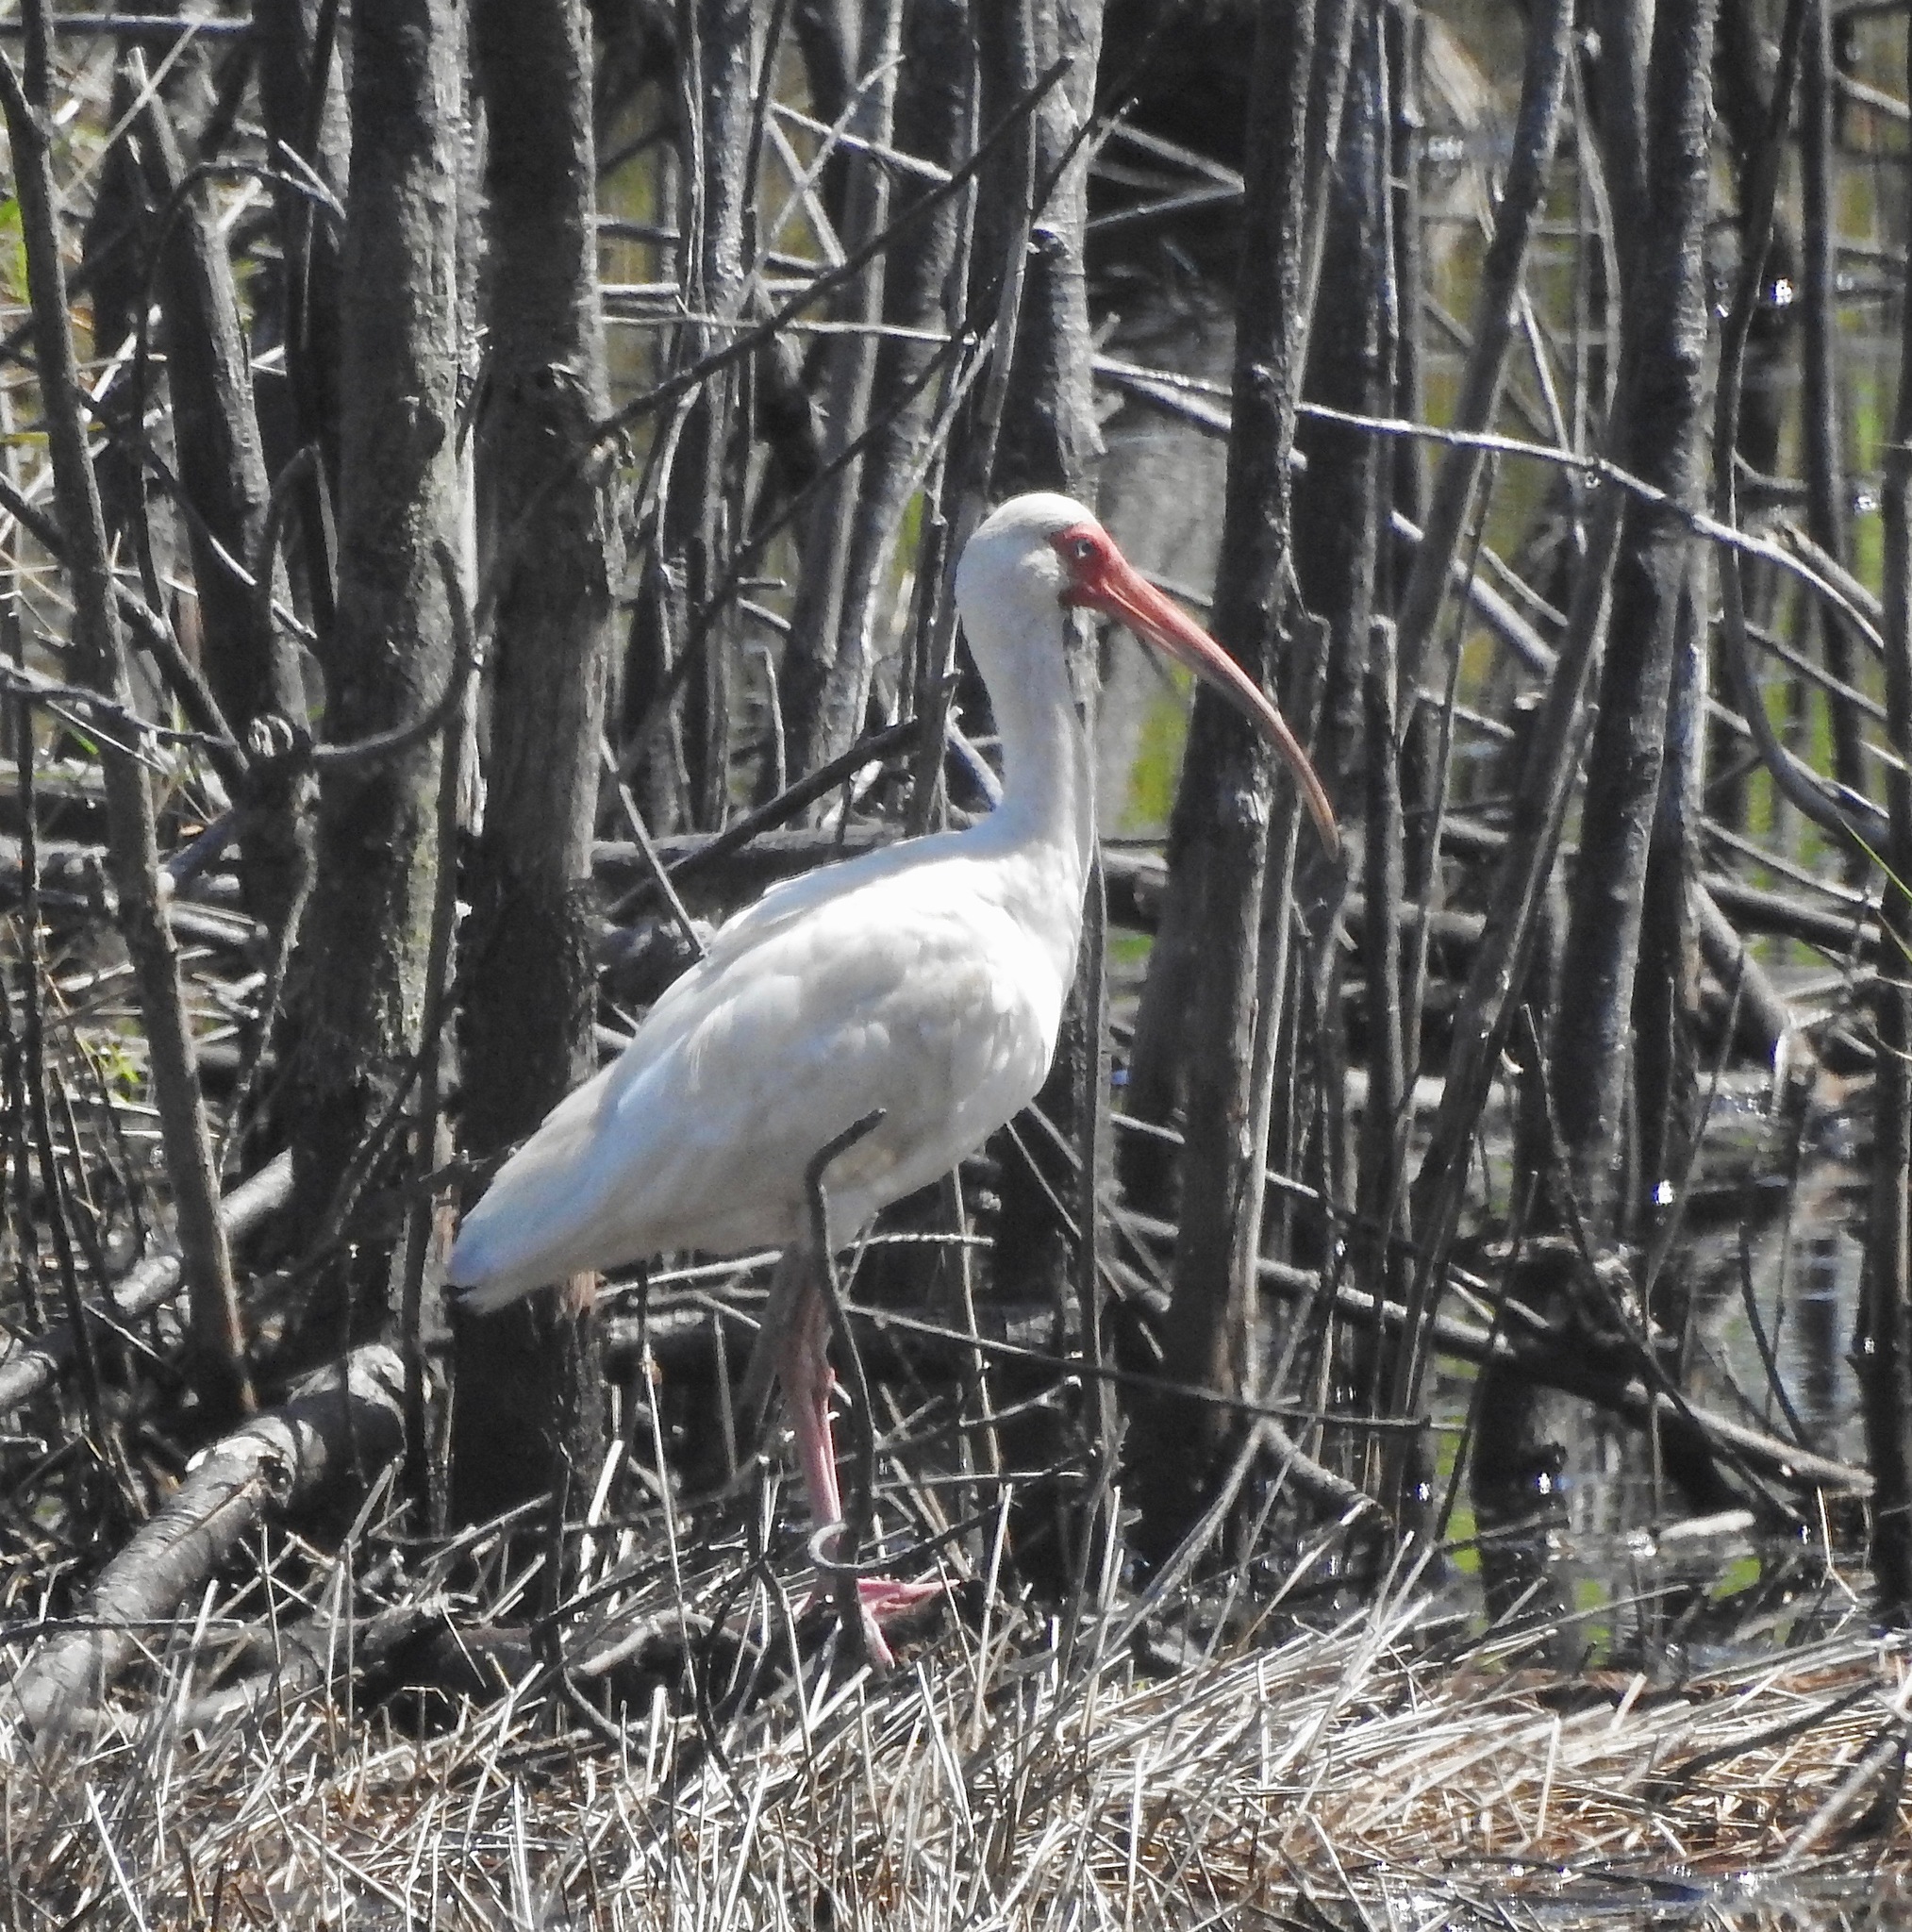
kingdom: Animalia
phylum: Chordata
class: Aves
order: Pelecaniformes
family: Threskiornithidae
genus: Eudocimus
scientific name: Eudocimus albus
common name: White ibis
